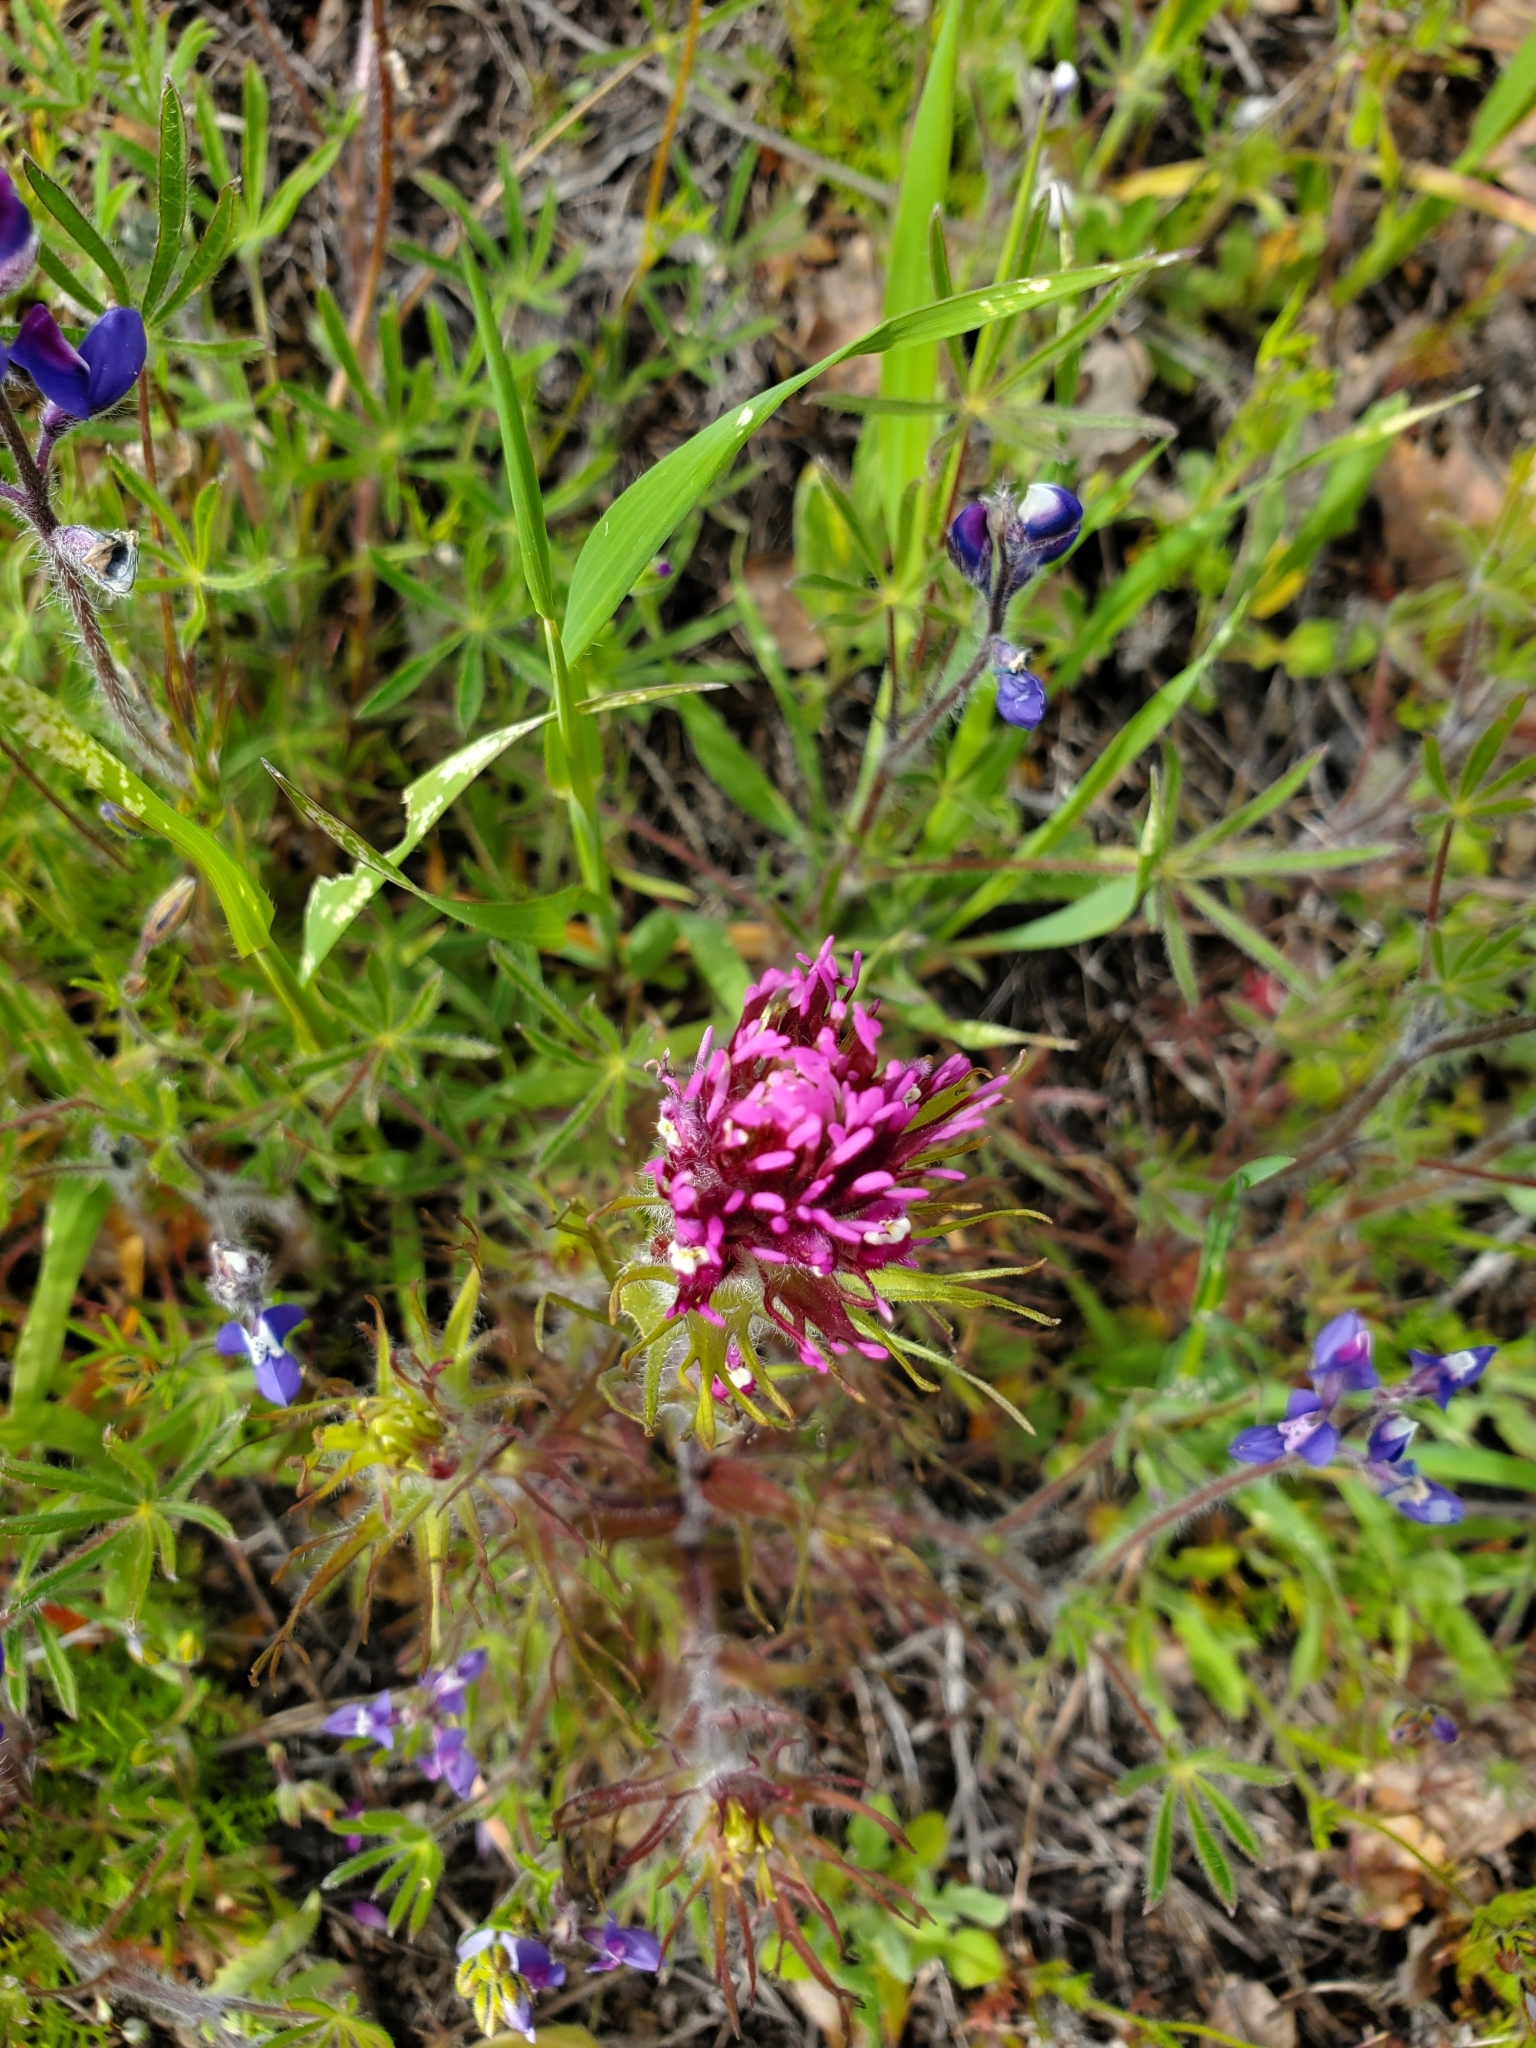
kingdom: Plantae
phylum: Tracheophyta
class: Magnoliopsida
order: Lamiales
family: Orobanchaceae
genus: Castilleja
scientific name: Castilleja exserta
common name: Purple owl-clover
